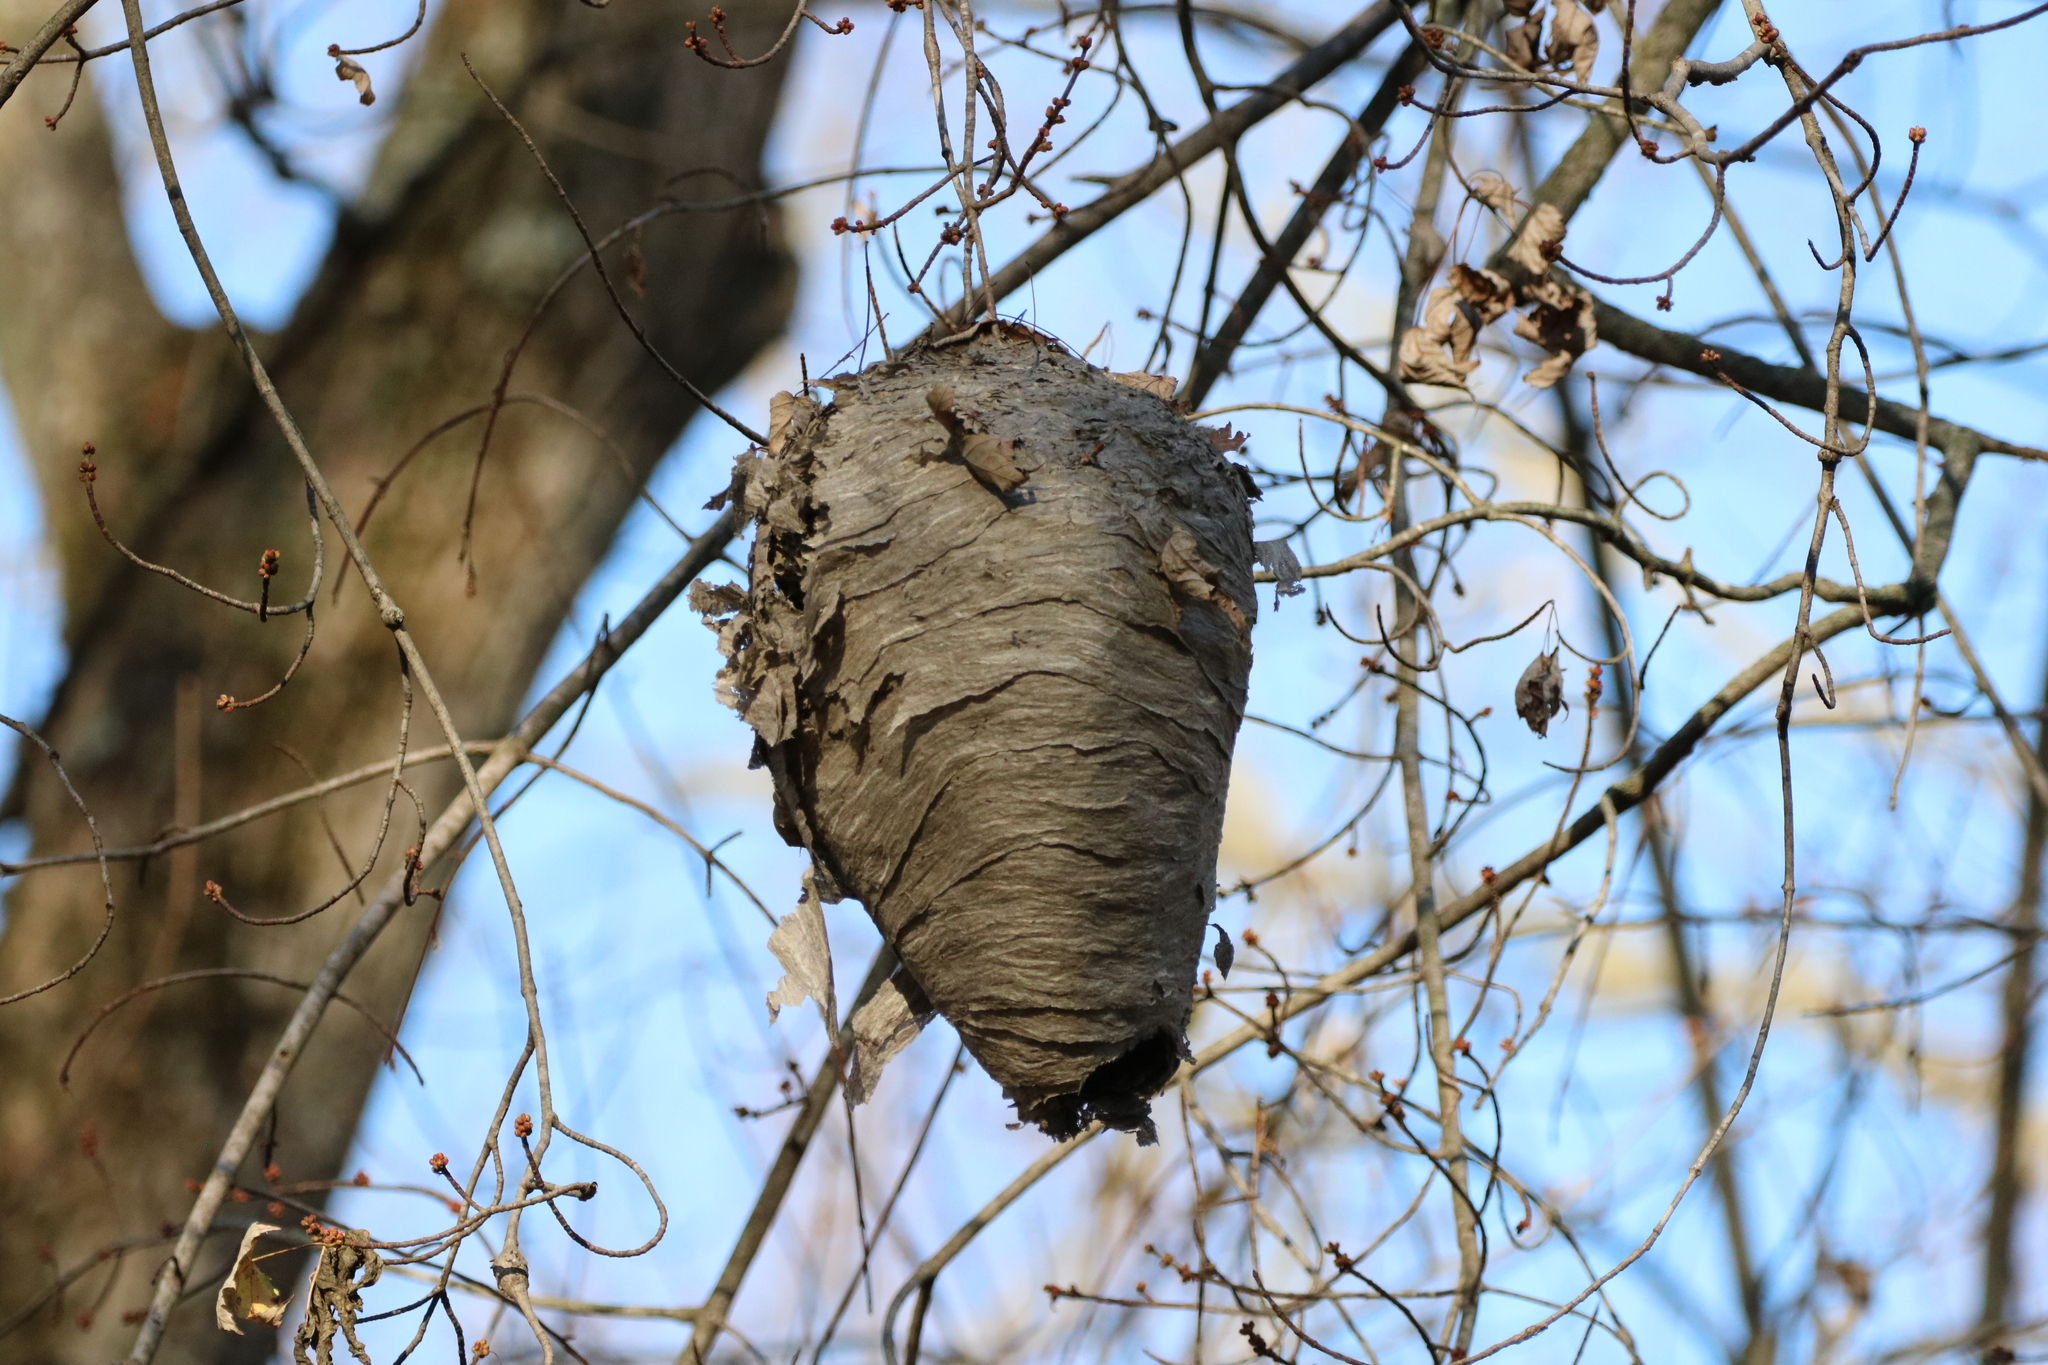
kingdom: Animalia
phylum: Arthropoda
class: Insecta
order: Hymenoptera
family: Vespidae
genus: Dolichovespula
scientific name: Dolichovespula maculata
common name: Bald-faced hornet
